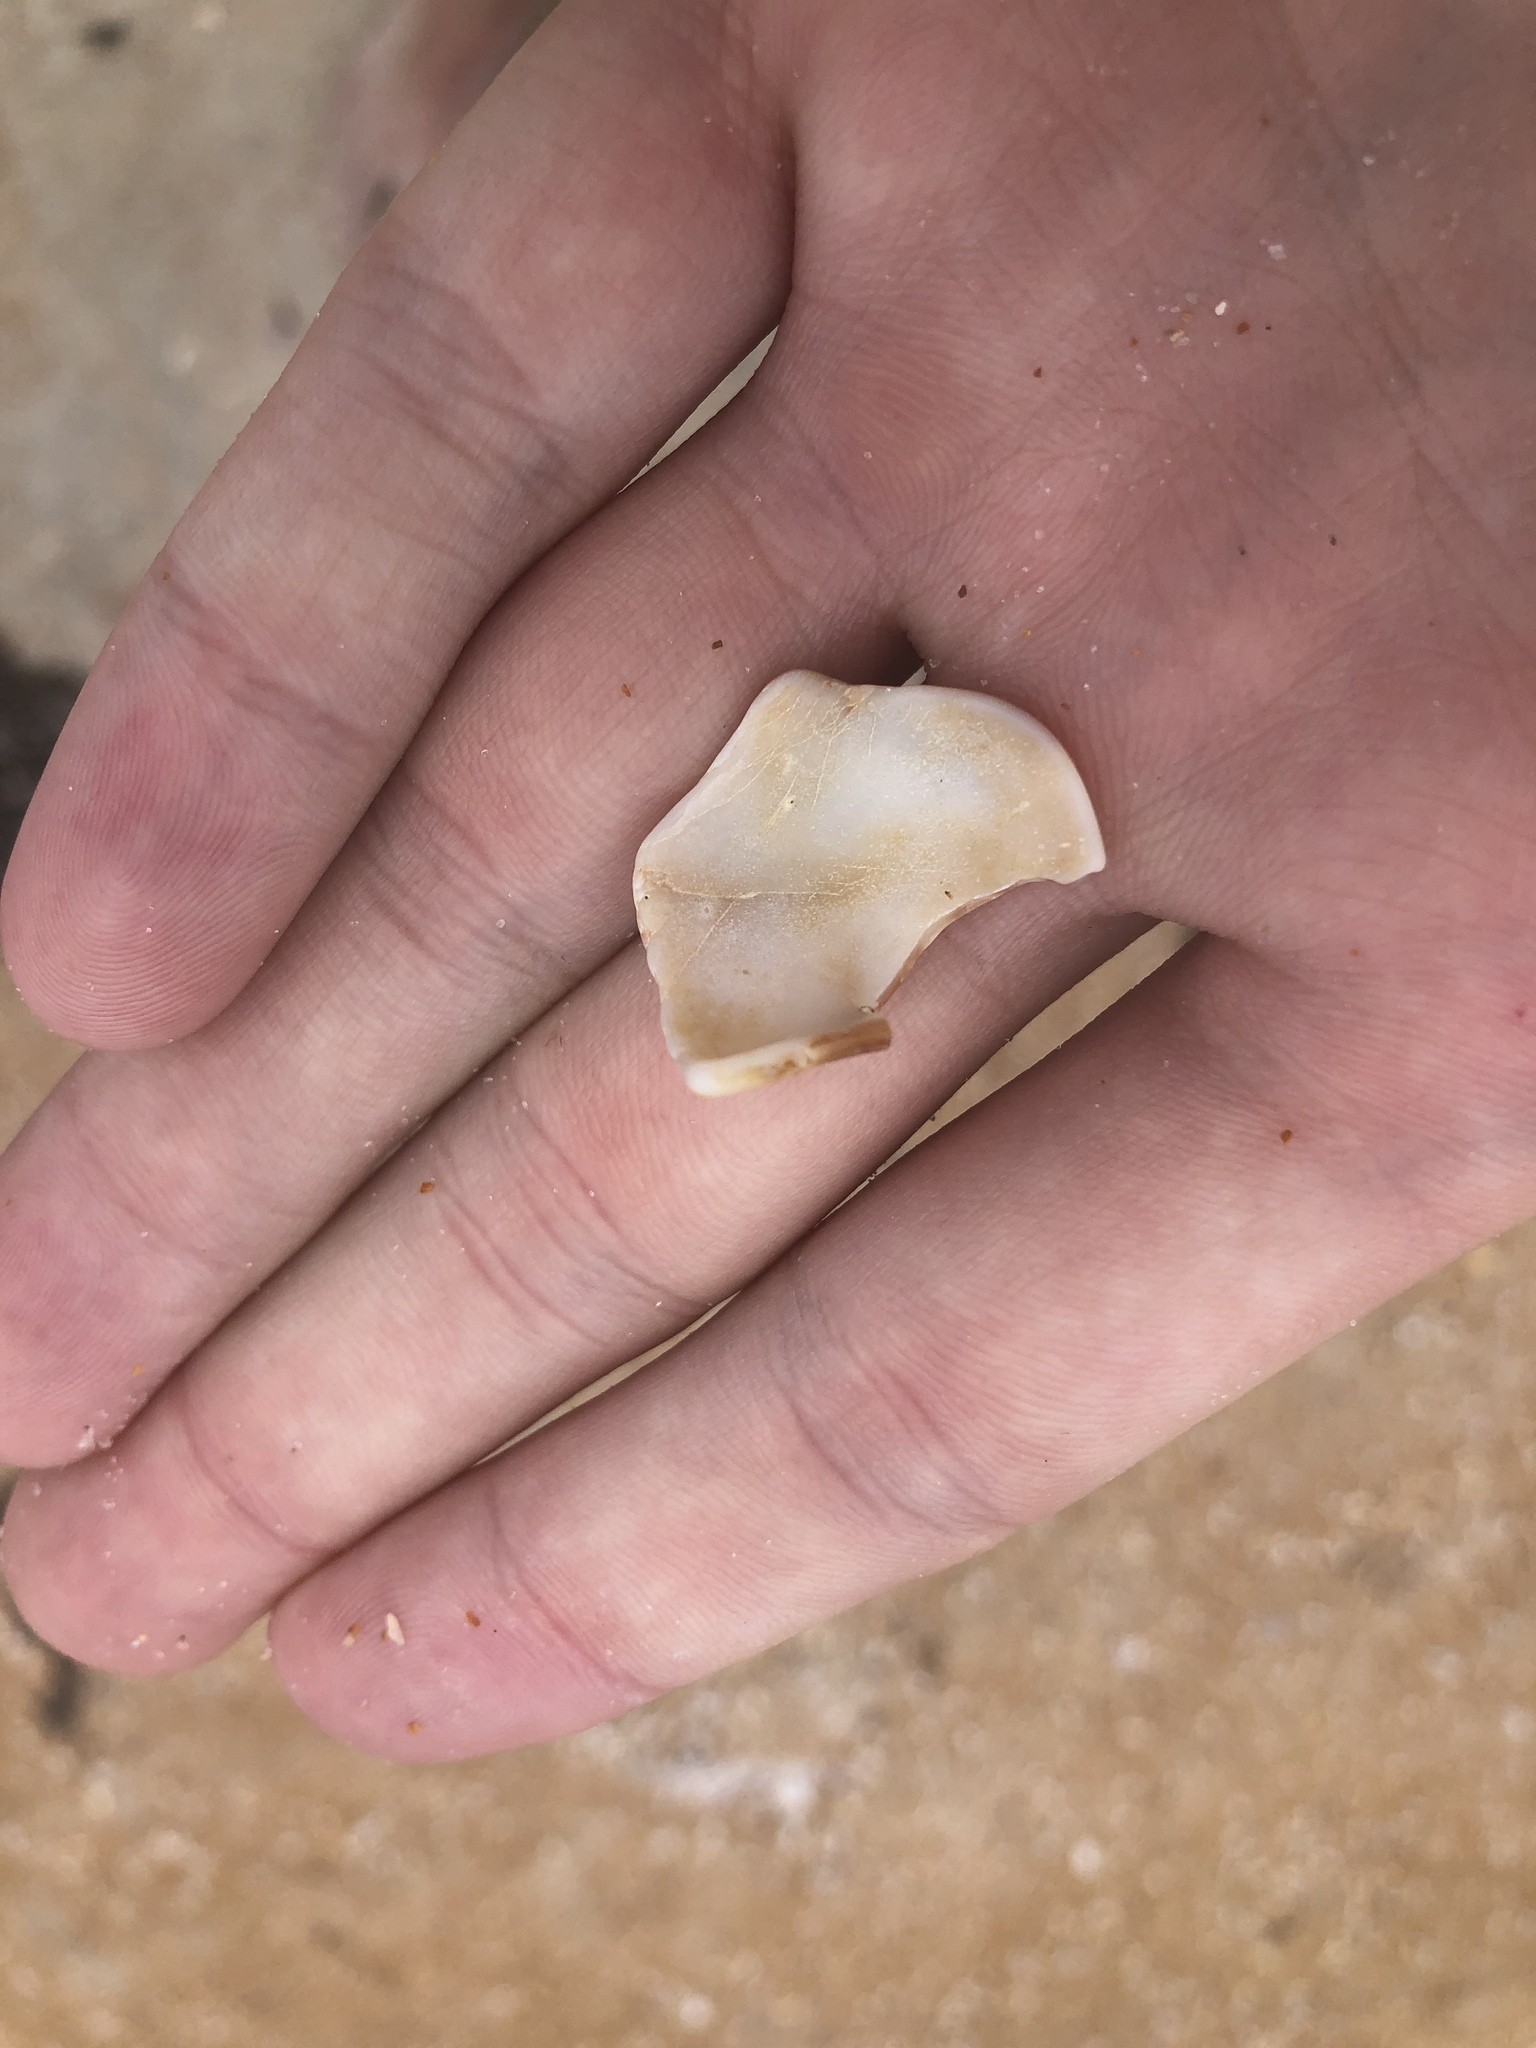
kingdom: Animalia
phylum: Mollusca
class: Gastropoda
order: Neogastropoda
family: Fasciolariidae
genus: Cinctura
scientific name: Cinctura hunteria
